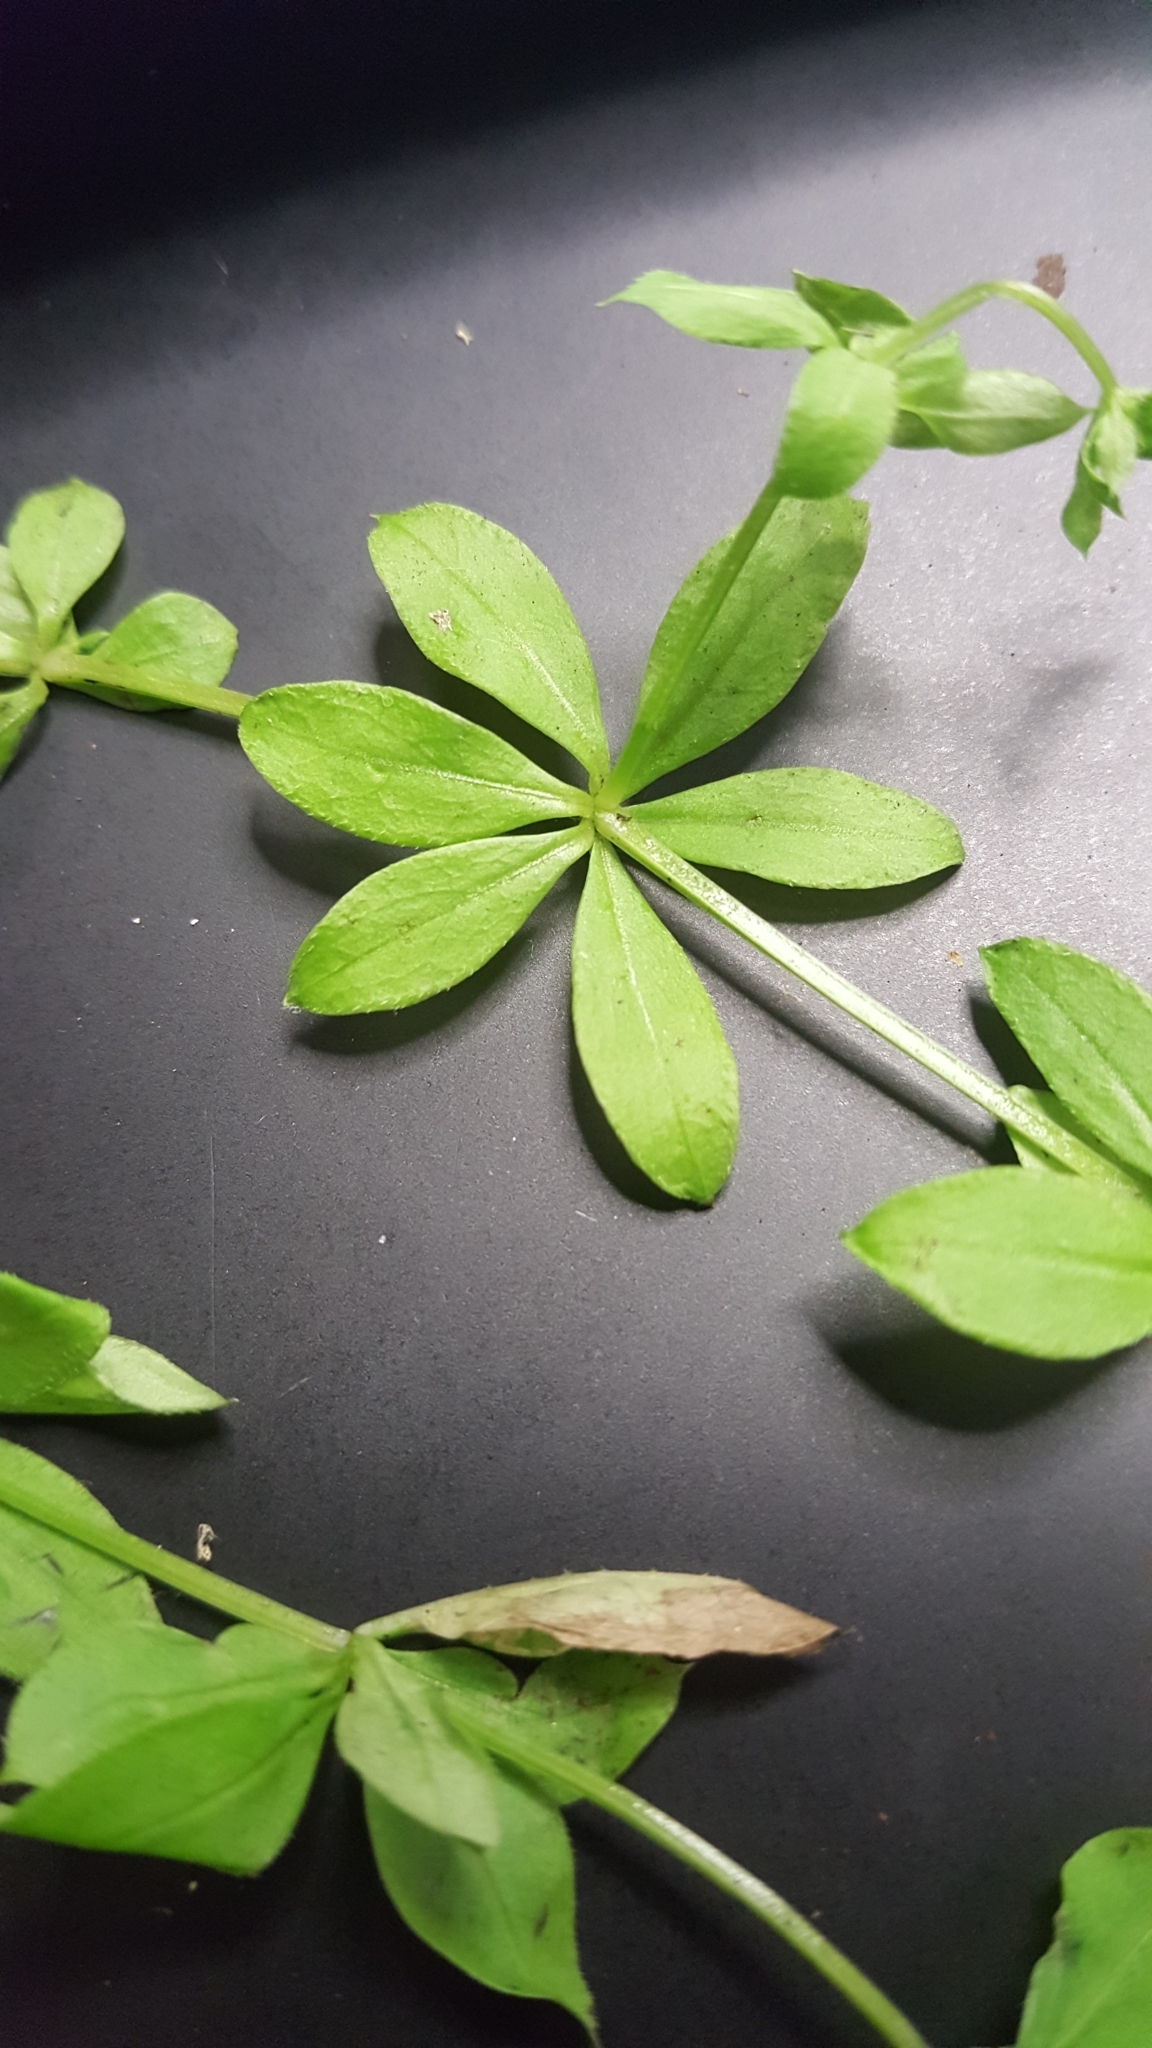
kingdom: Plantae
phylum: Tracheophyta
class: Magnoliopsida
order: Gentianales
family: Rubiaceae
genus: Galium
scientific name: Galium triflorum
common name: Fragrant bedstraw
